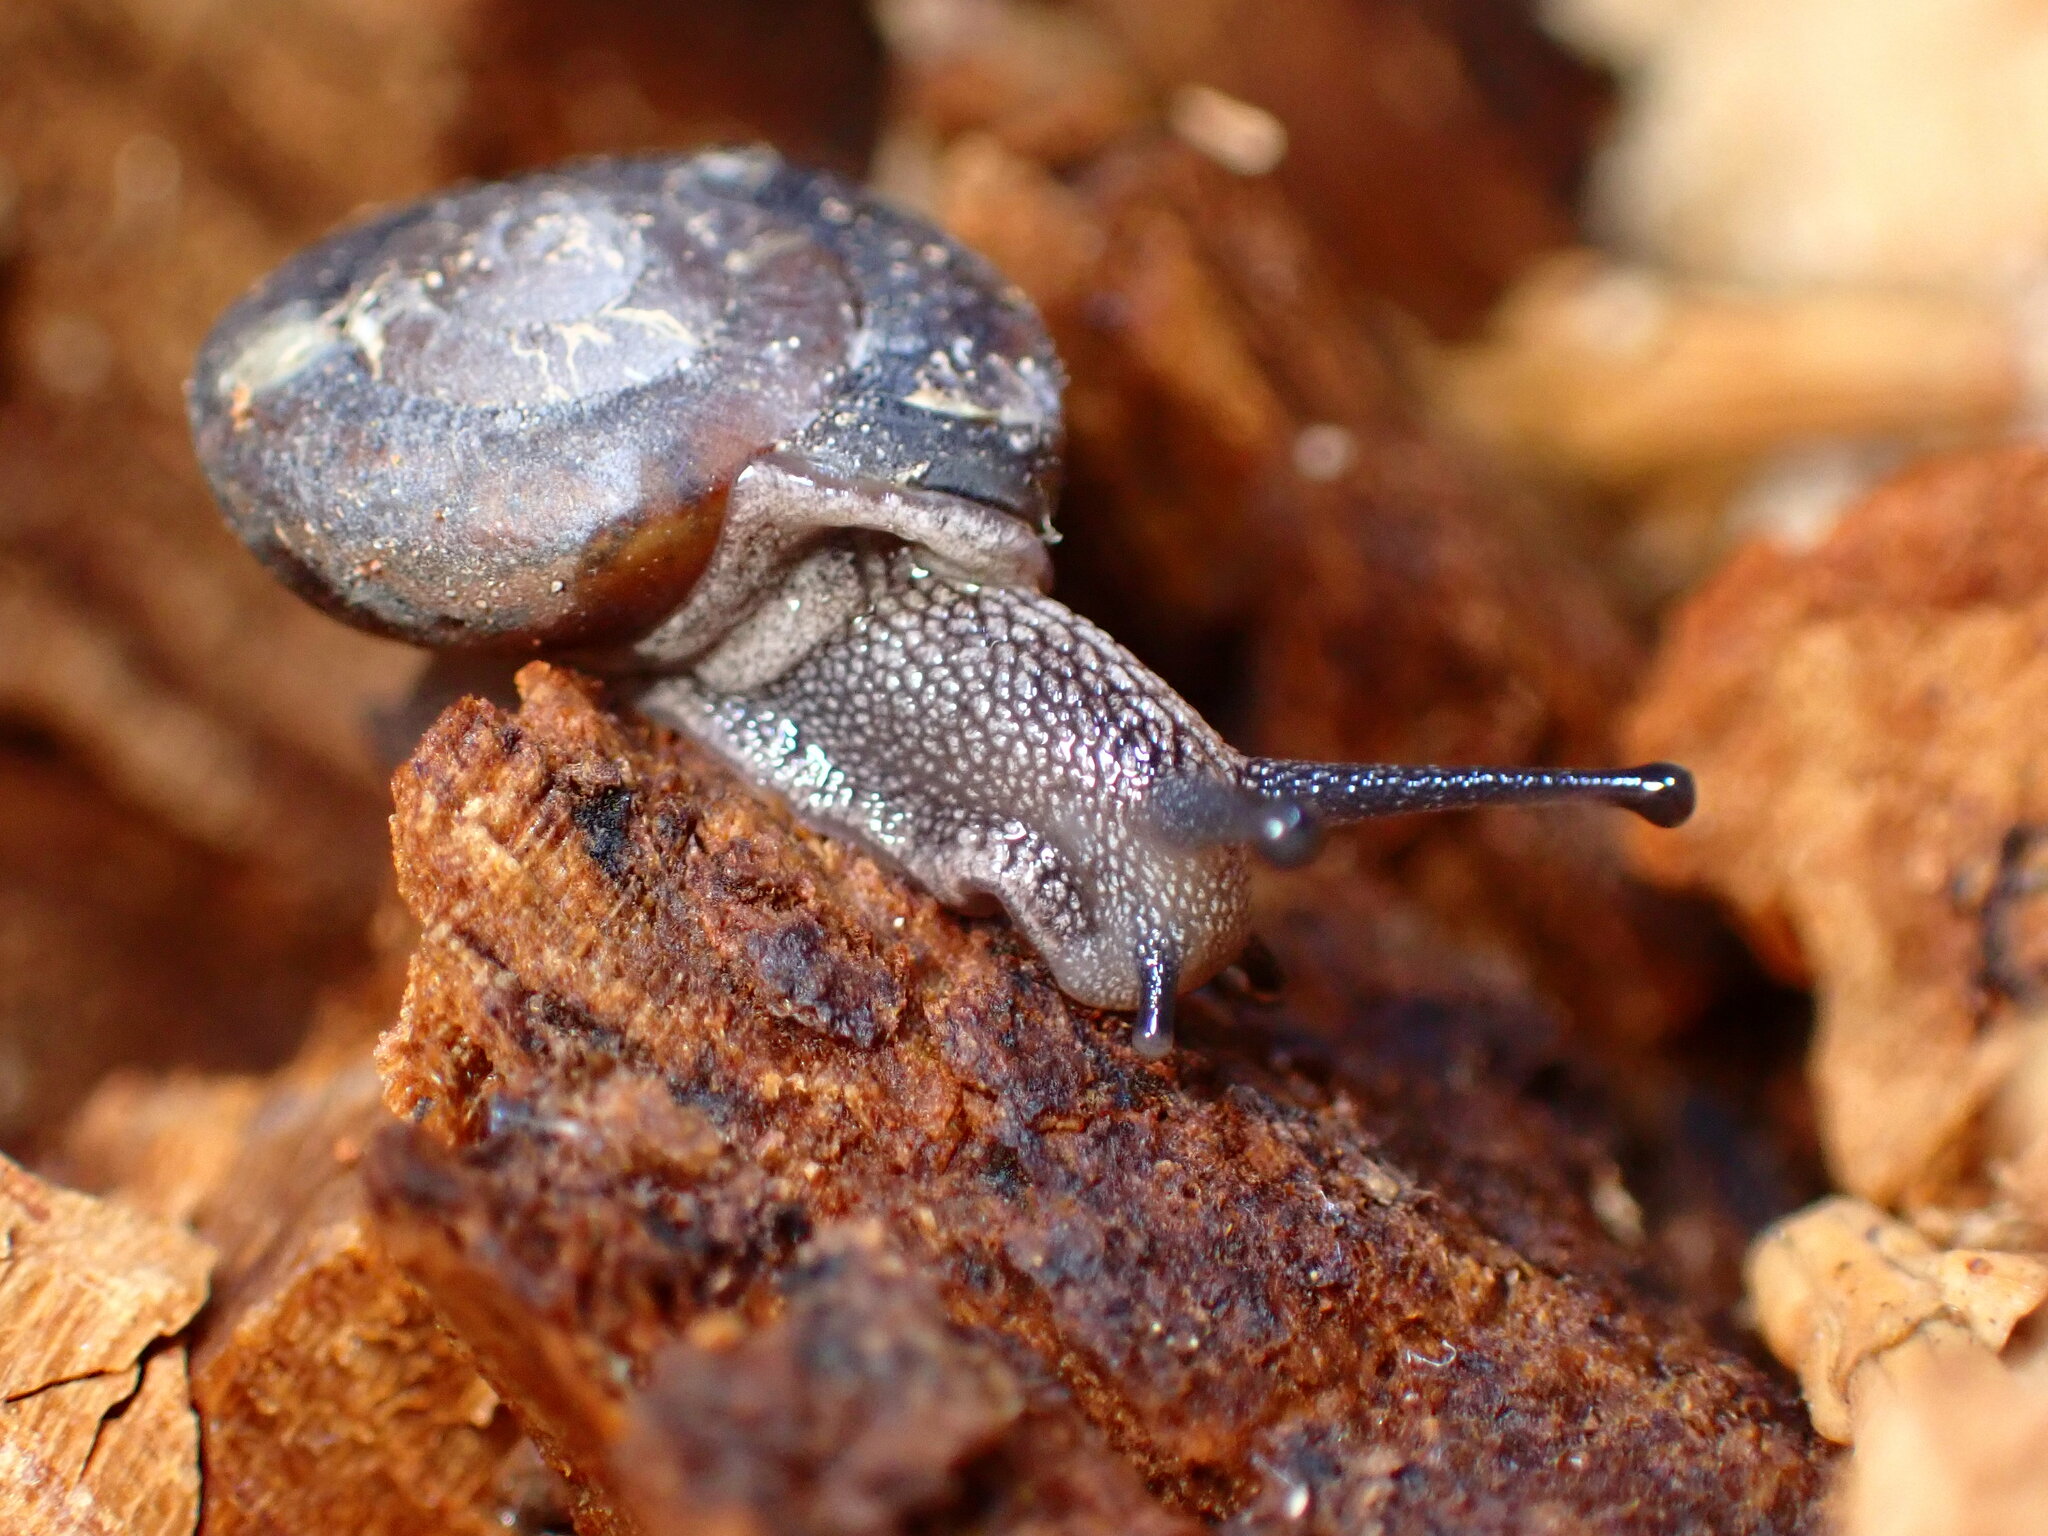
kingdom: Animalia
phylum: Mollusca
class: Gastropoda
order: Stylommatophora
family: Xanthonychidae
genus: Monadenia
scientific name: Monadenia mormonum
